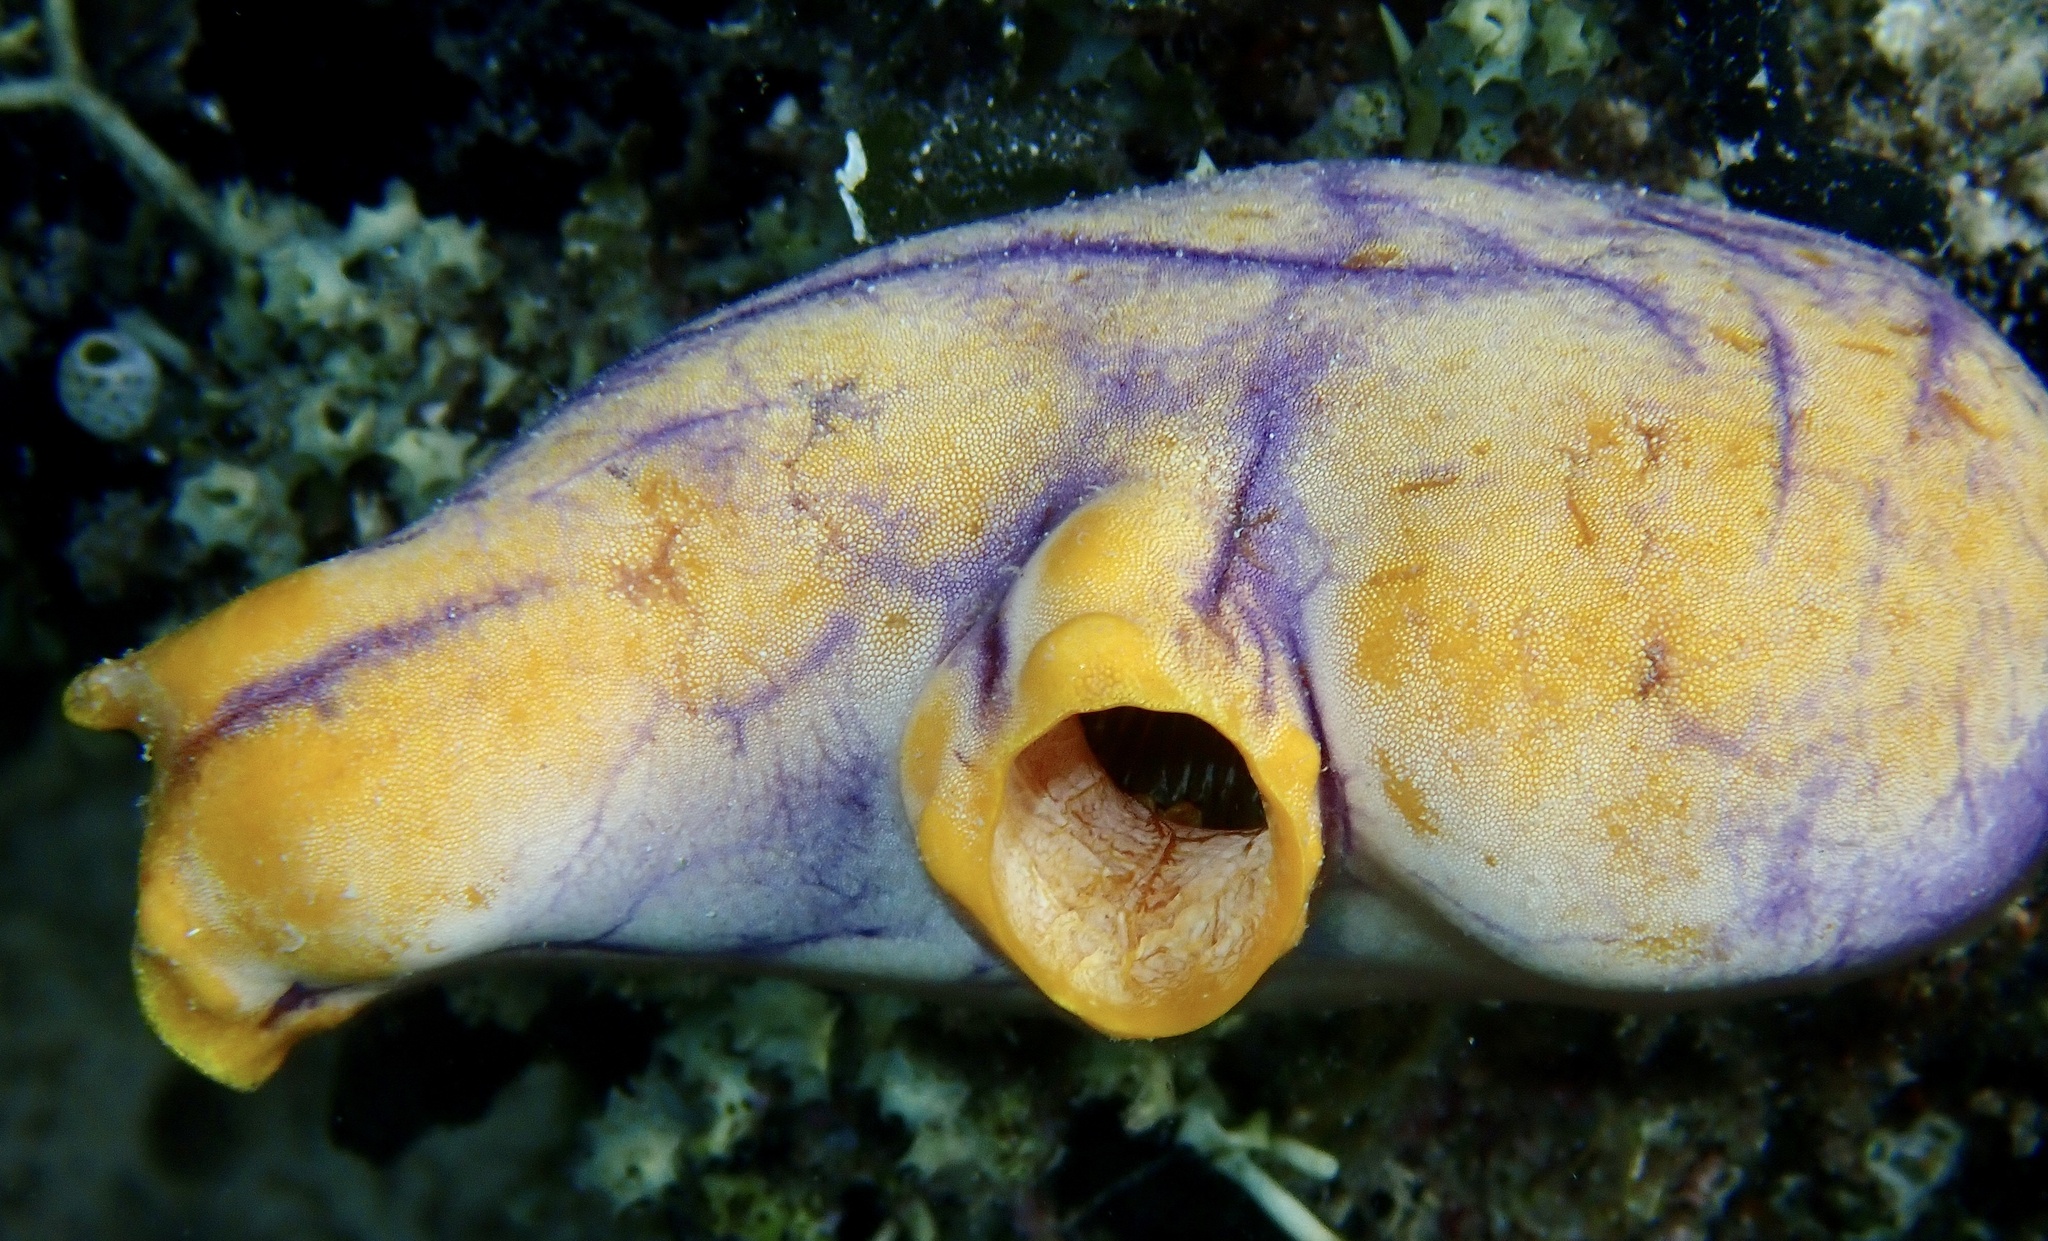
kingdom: Animalia
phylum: Chordata
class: Ascidiacea
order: Stolidobranchia
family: Styelidae
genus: Polycarpa
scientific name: Polycarpa aurata
